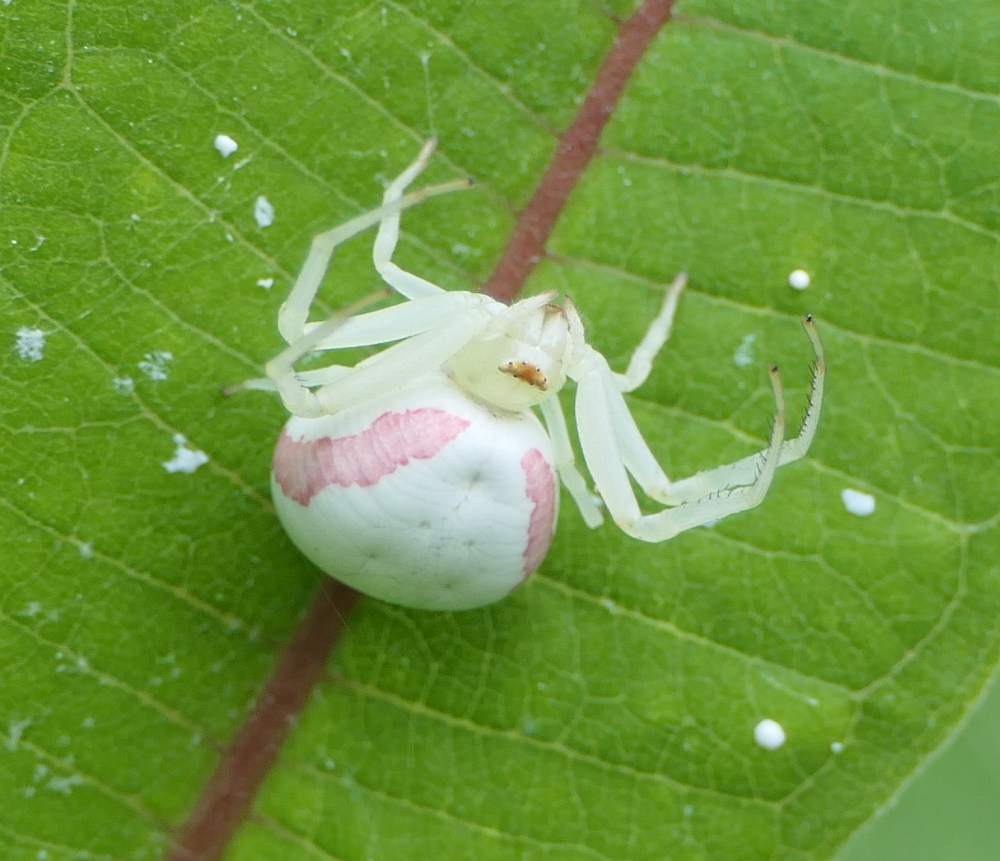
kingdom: Animalia
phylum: Arthropoda
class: Arachnida
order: Araneae
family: Thomisidae
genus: Misumena
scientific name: Misumena vatia
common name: Goldenrod crab spider
